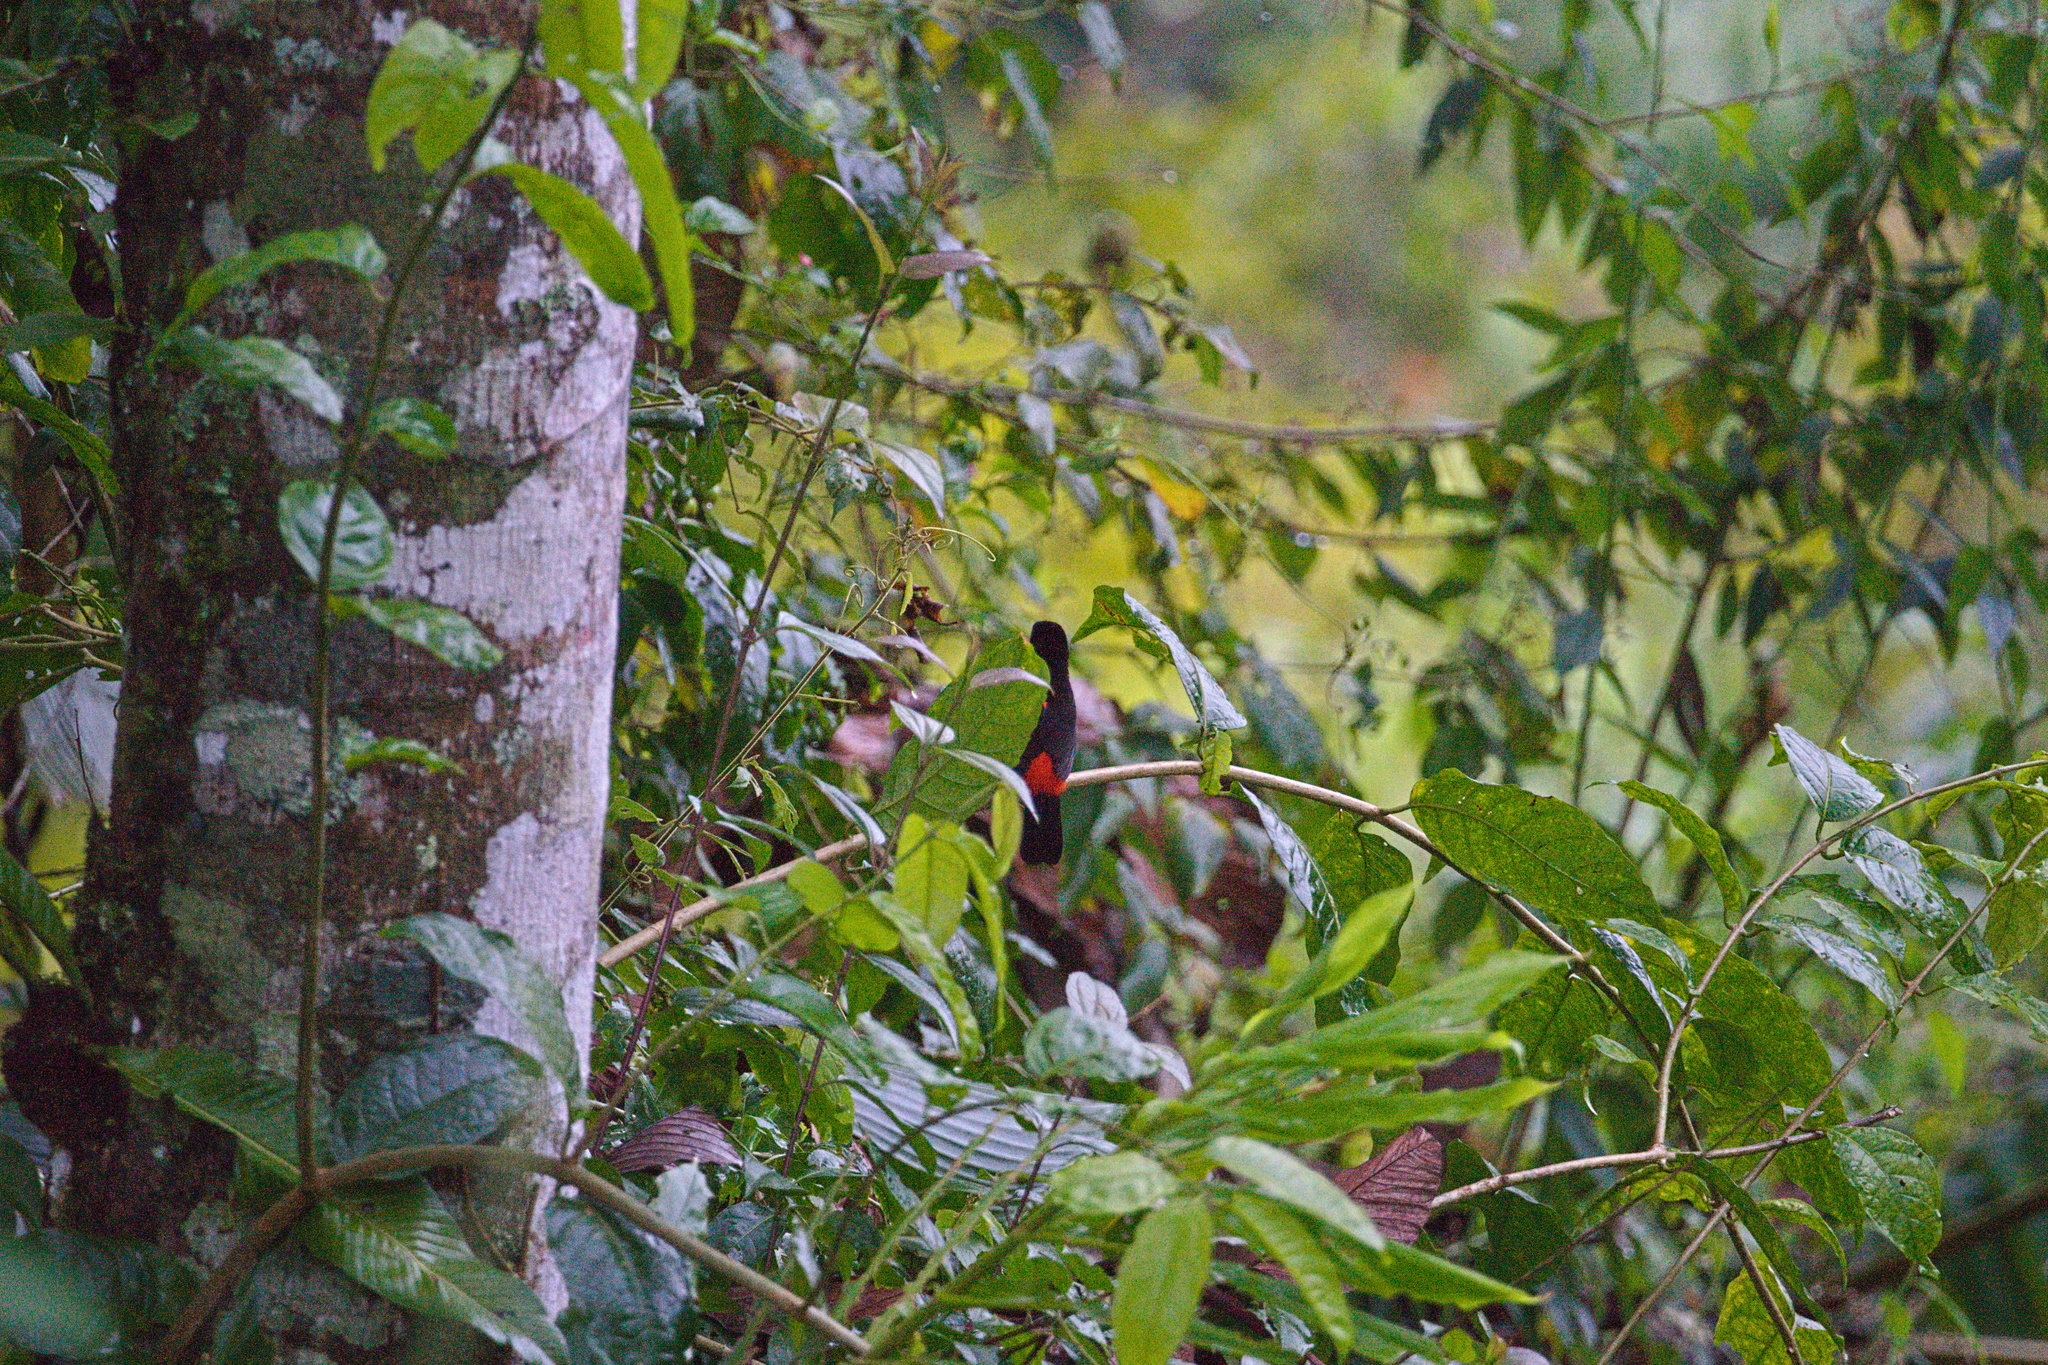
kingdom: Animalia
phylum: Chordata
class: Aves
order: Passeriformes
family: Thraupidae
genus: Ramphocelus
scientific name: Ramphocelus passerinii
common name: Passerini's tanager
